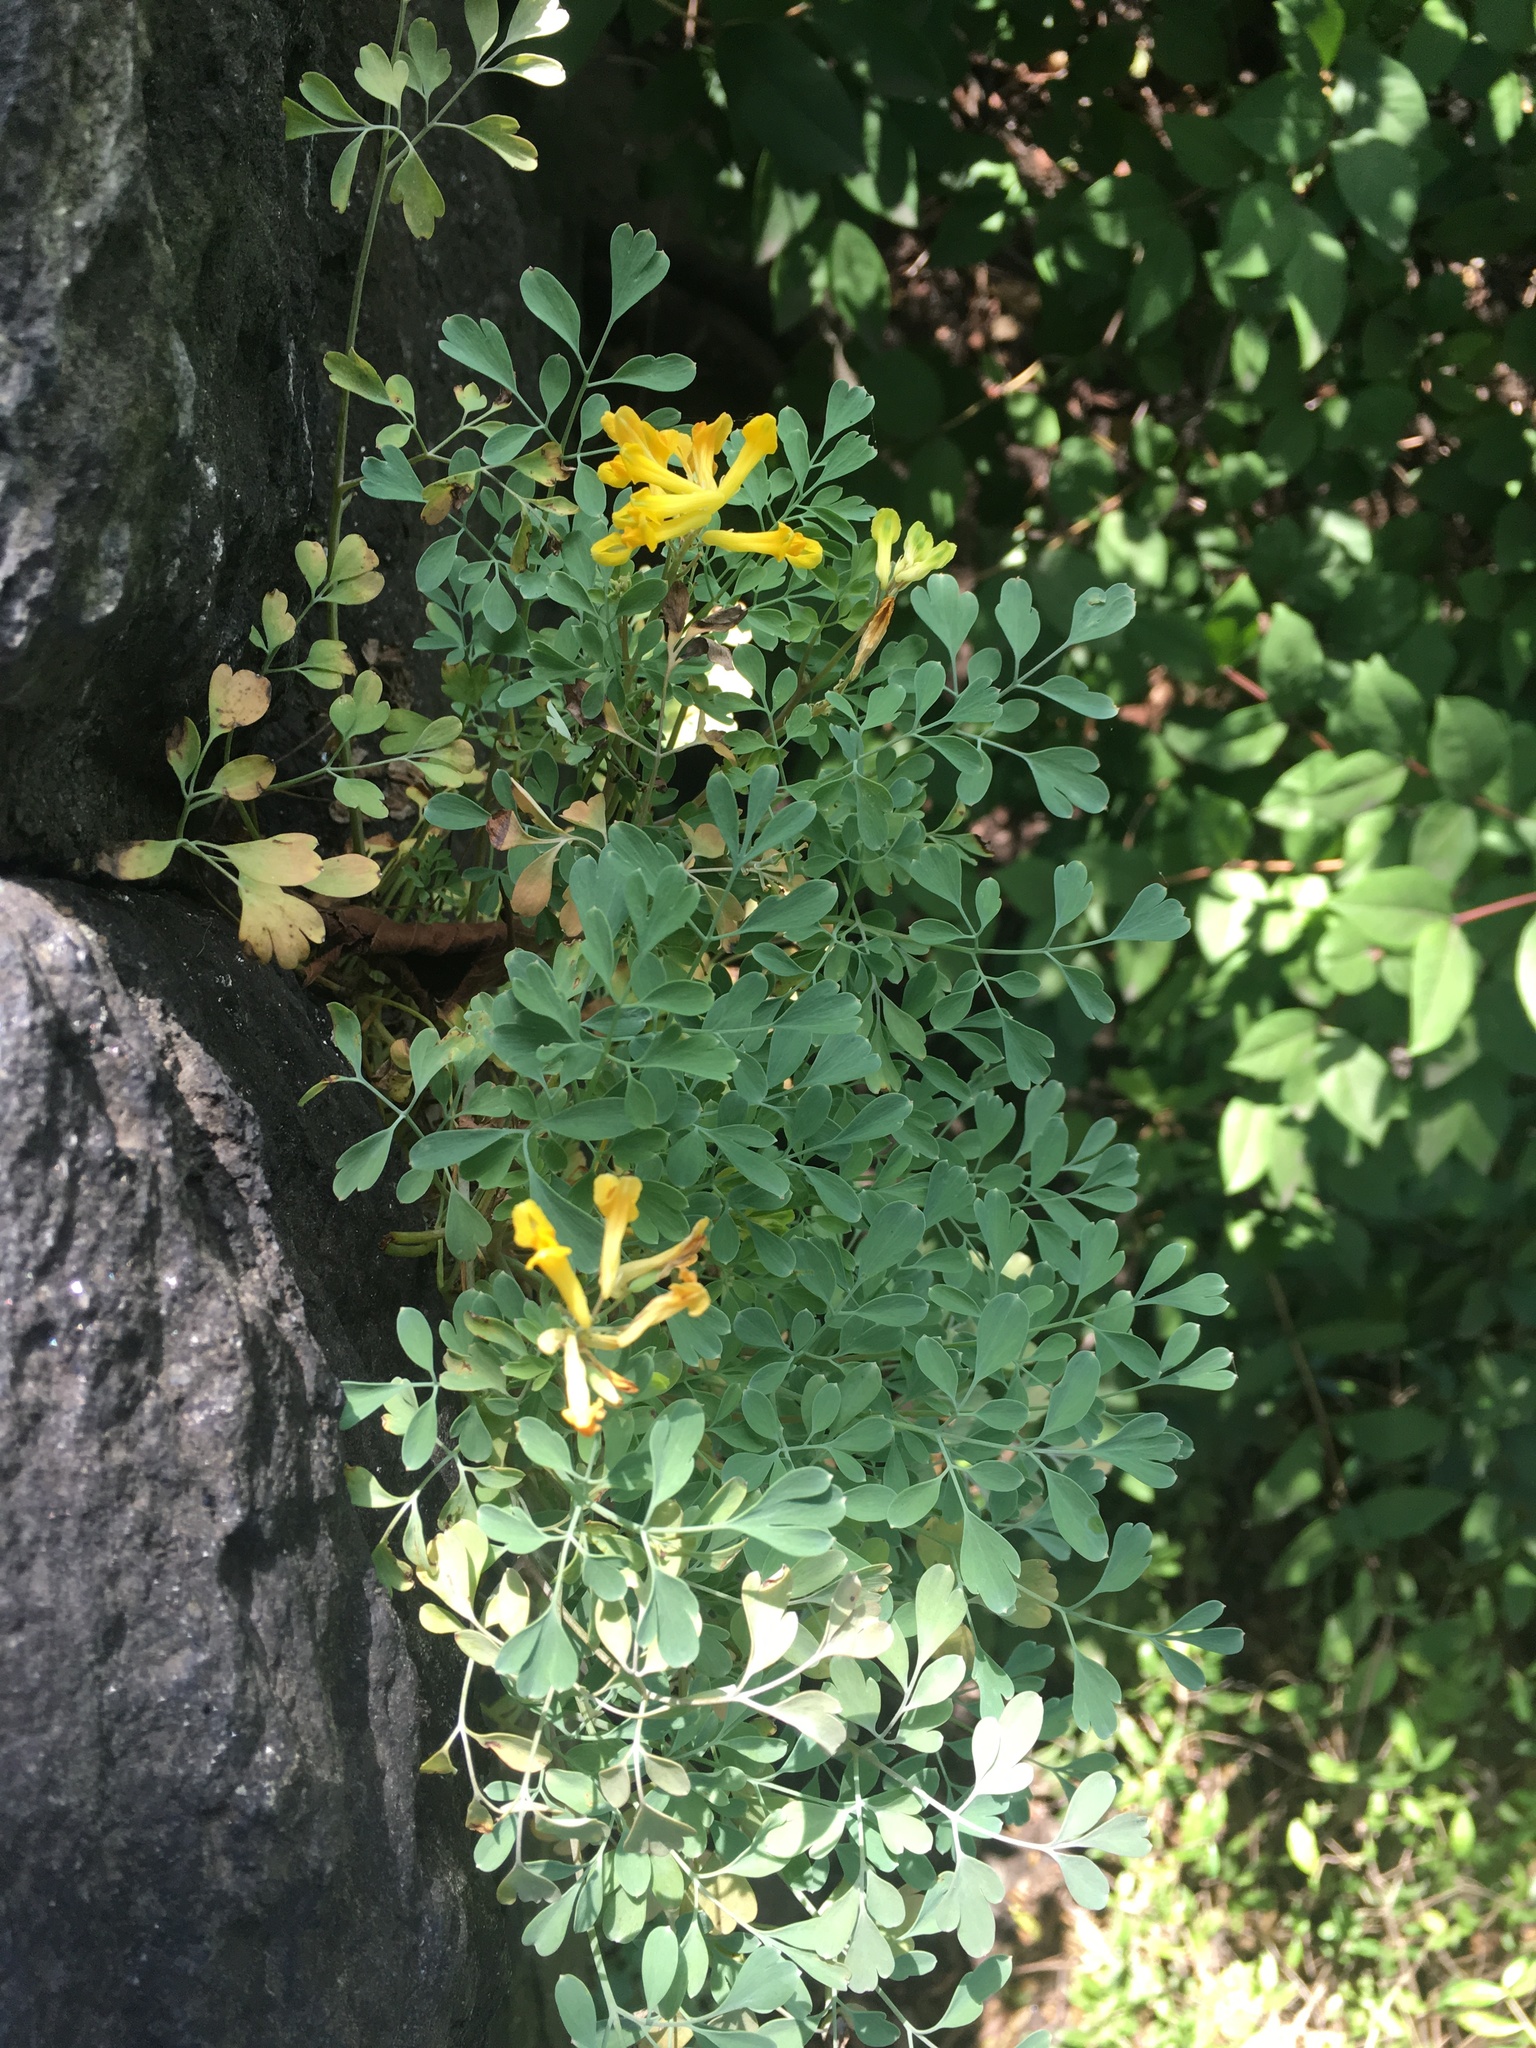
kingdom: Plantae
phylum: Tracheophyta
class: Magnoliopsida
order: Ranunculales
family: Papaveraceae
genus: Pseudofumaria
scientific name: Pseudofumaria lutea
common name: Yellow corydalis
